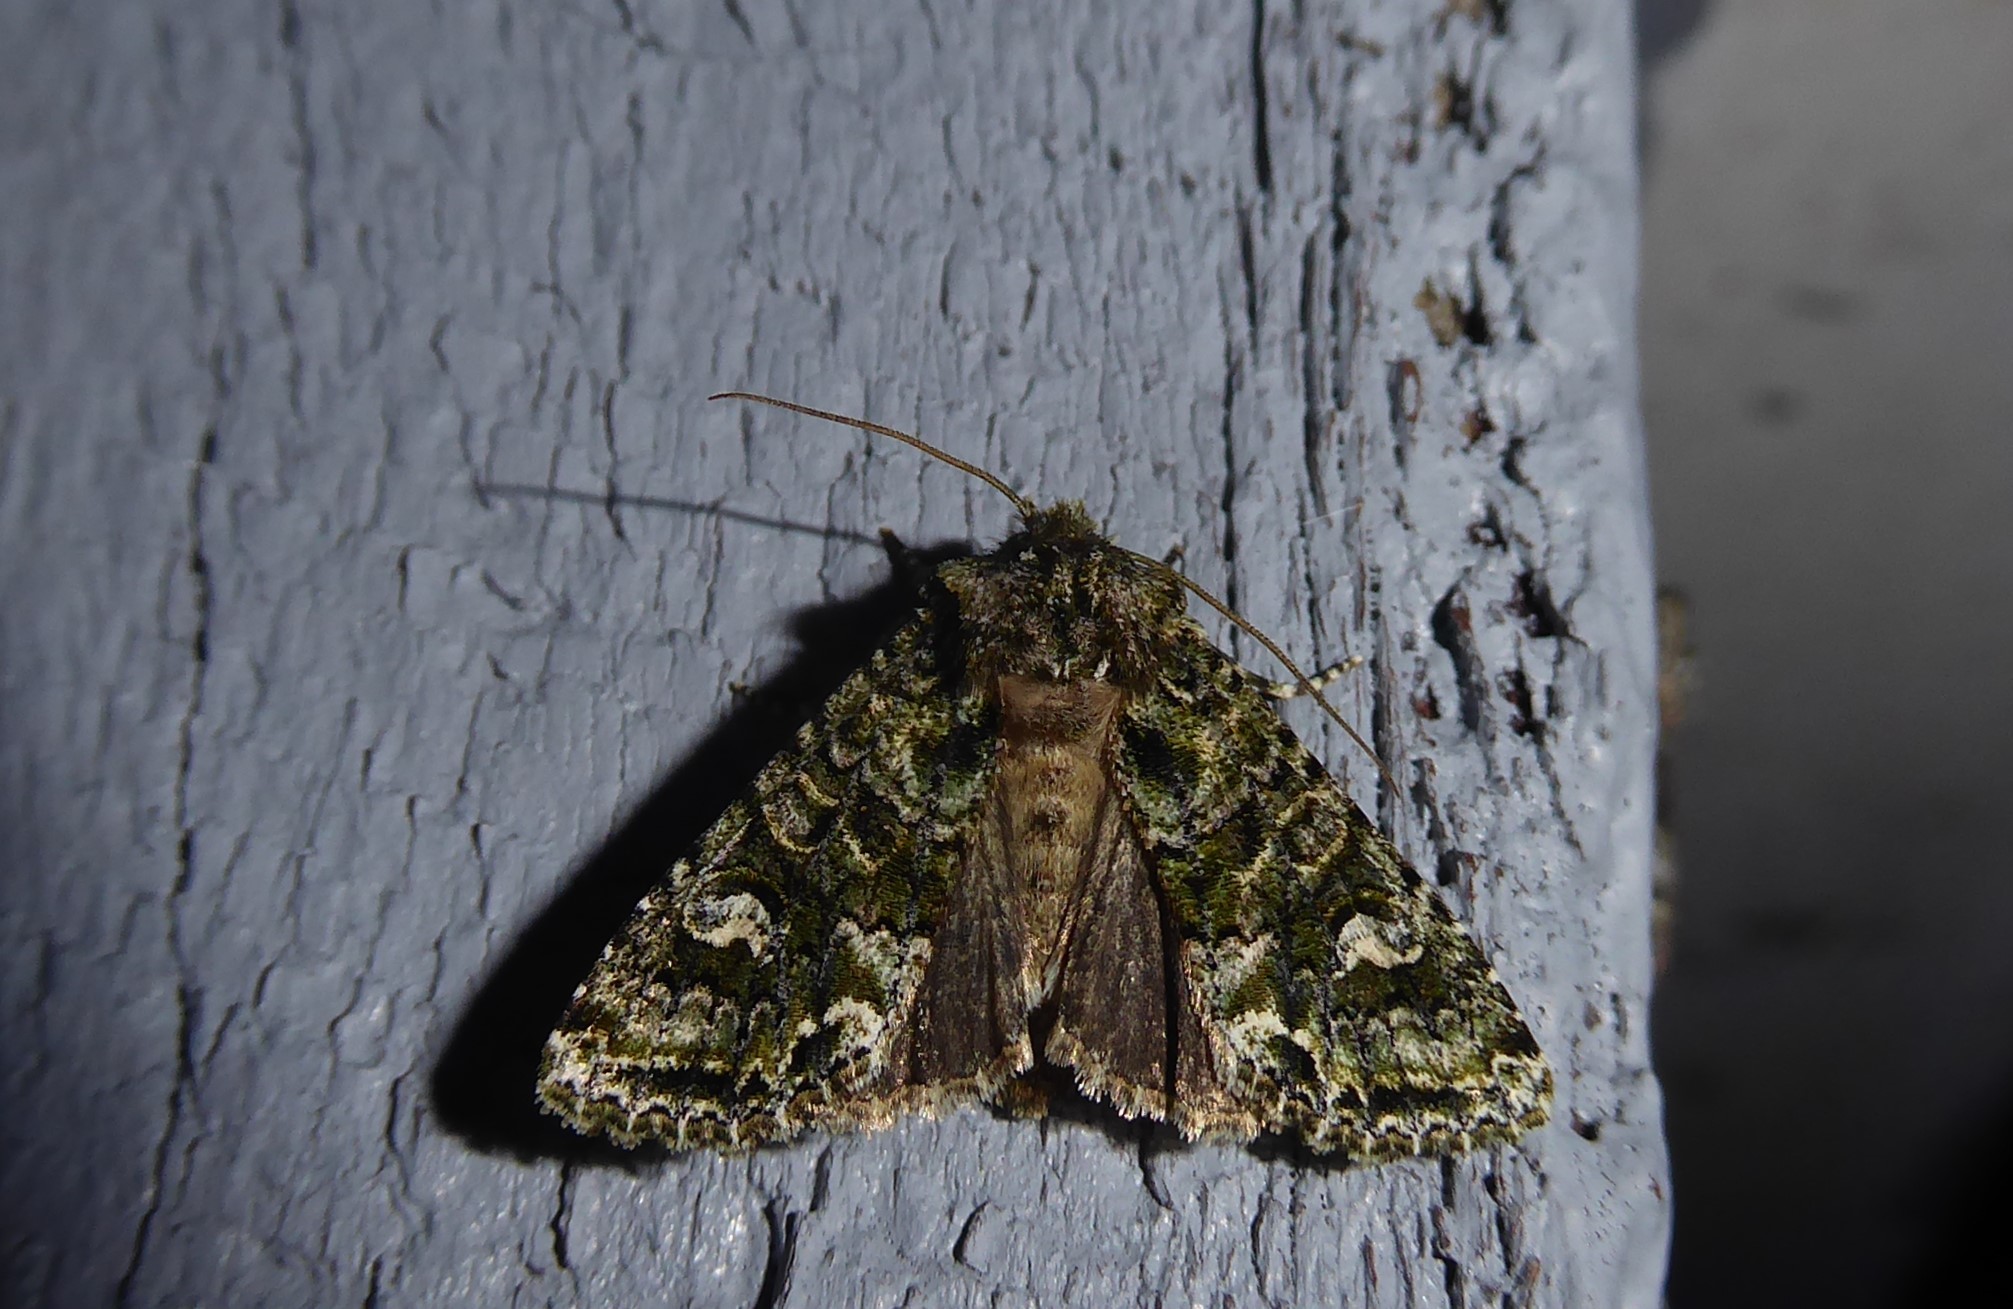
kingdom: Animalia
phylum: Arthropoda
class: Insecta
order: Lepidoptera
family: Noctuidae
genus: Ichneutica
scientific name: Ichneutica
